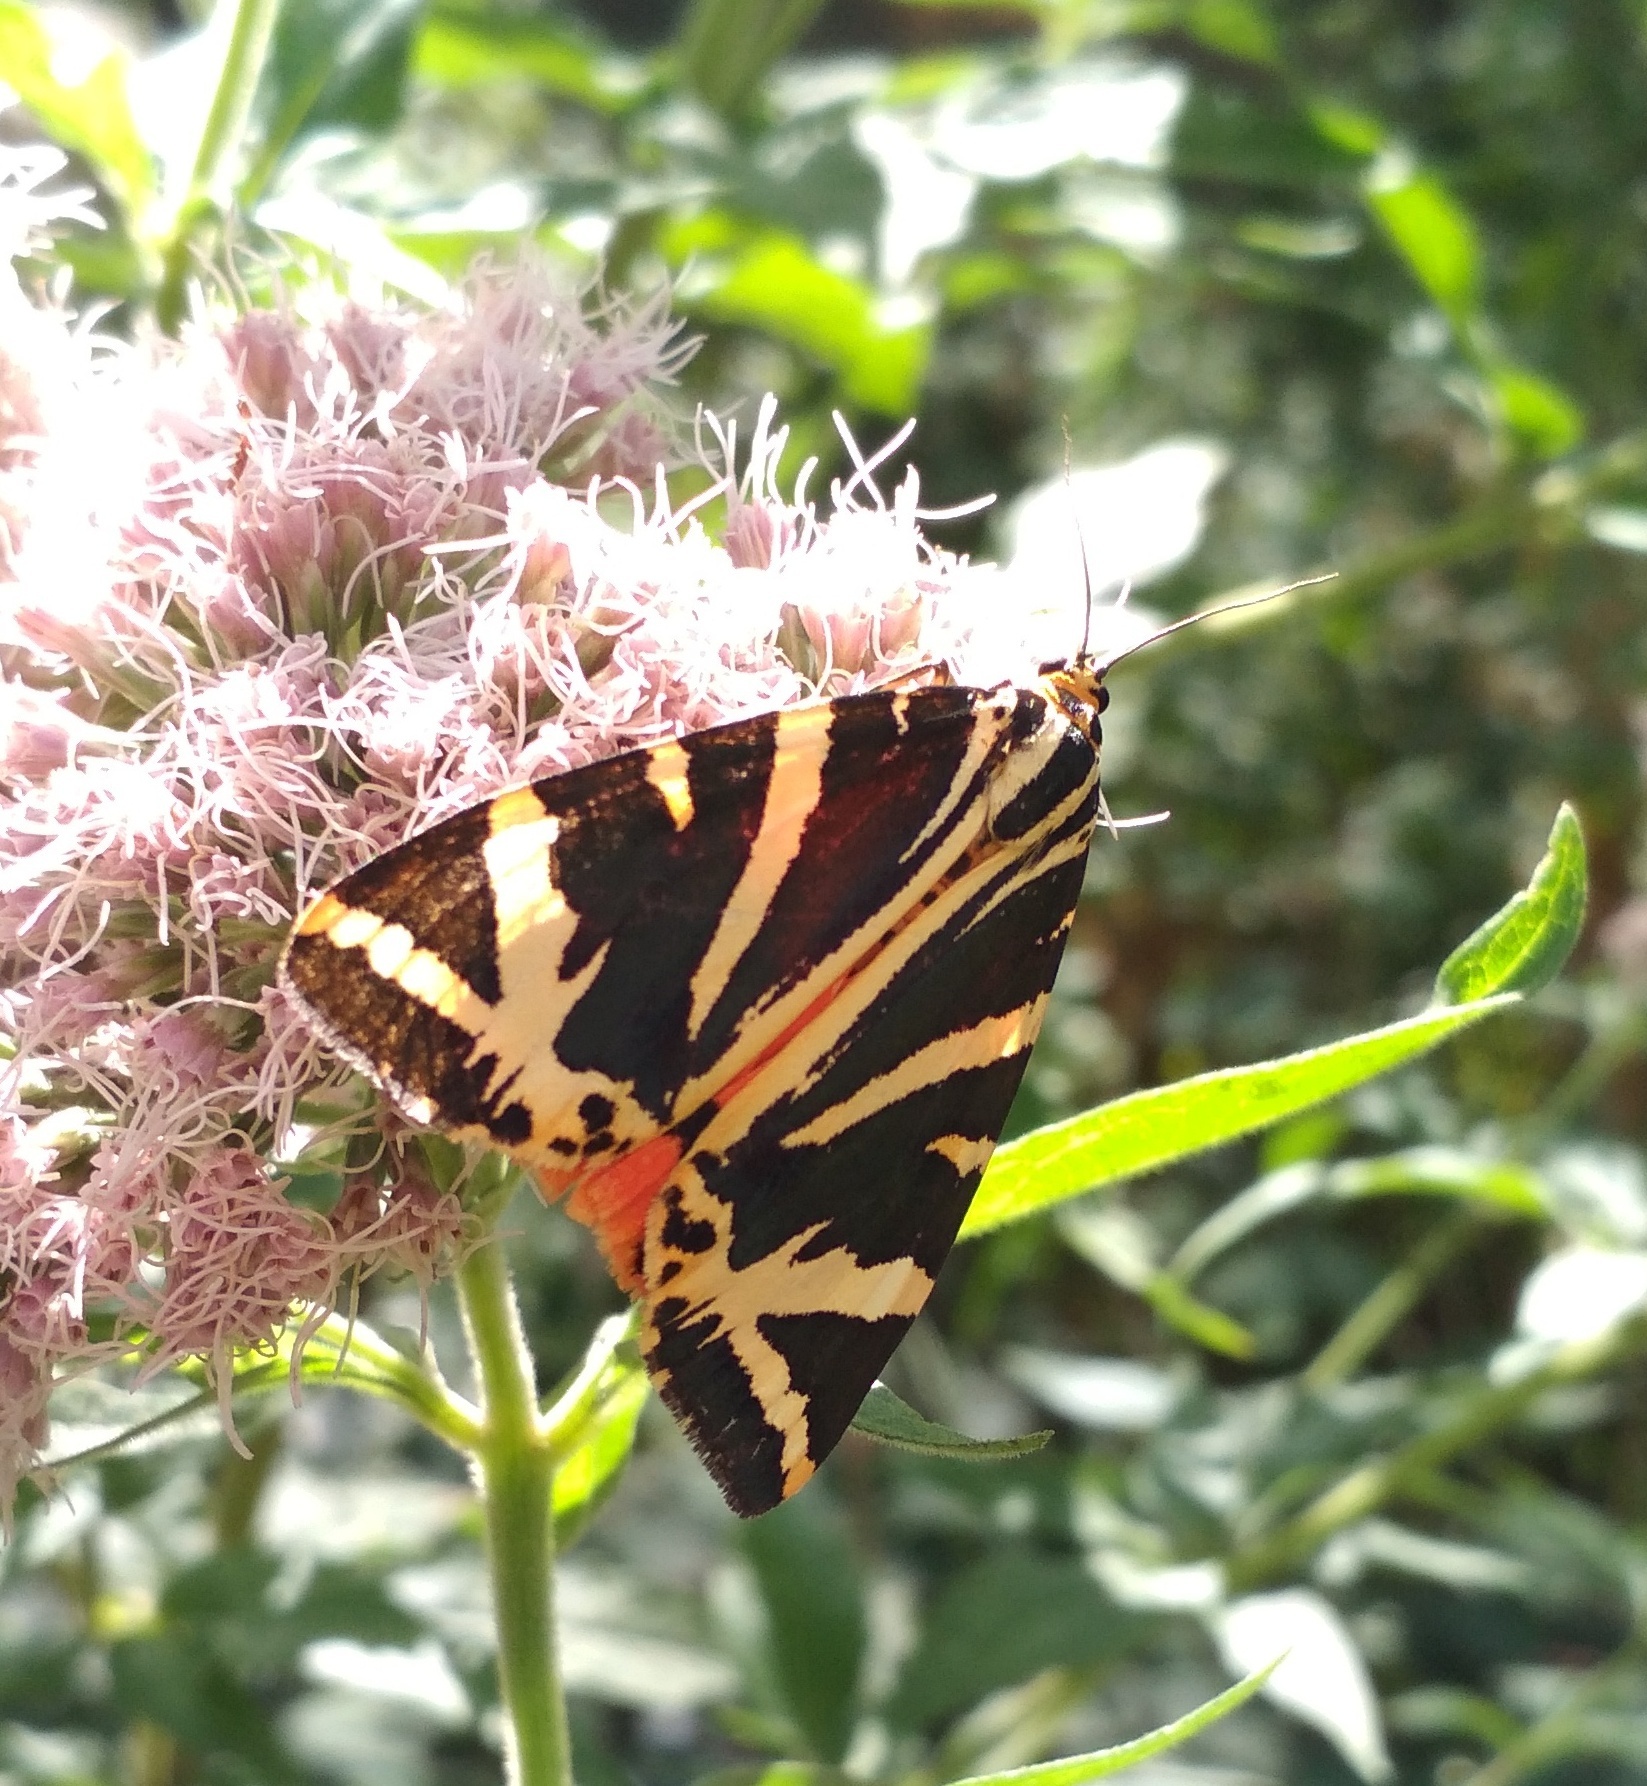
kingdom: Animalia
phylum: Arthropoda
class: Insecta
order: Lepidoptera
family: Erebidae
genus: Euplagia
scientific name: Euplagia quadripunctaria
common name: Jersey tiger
